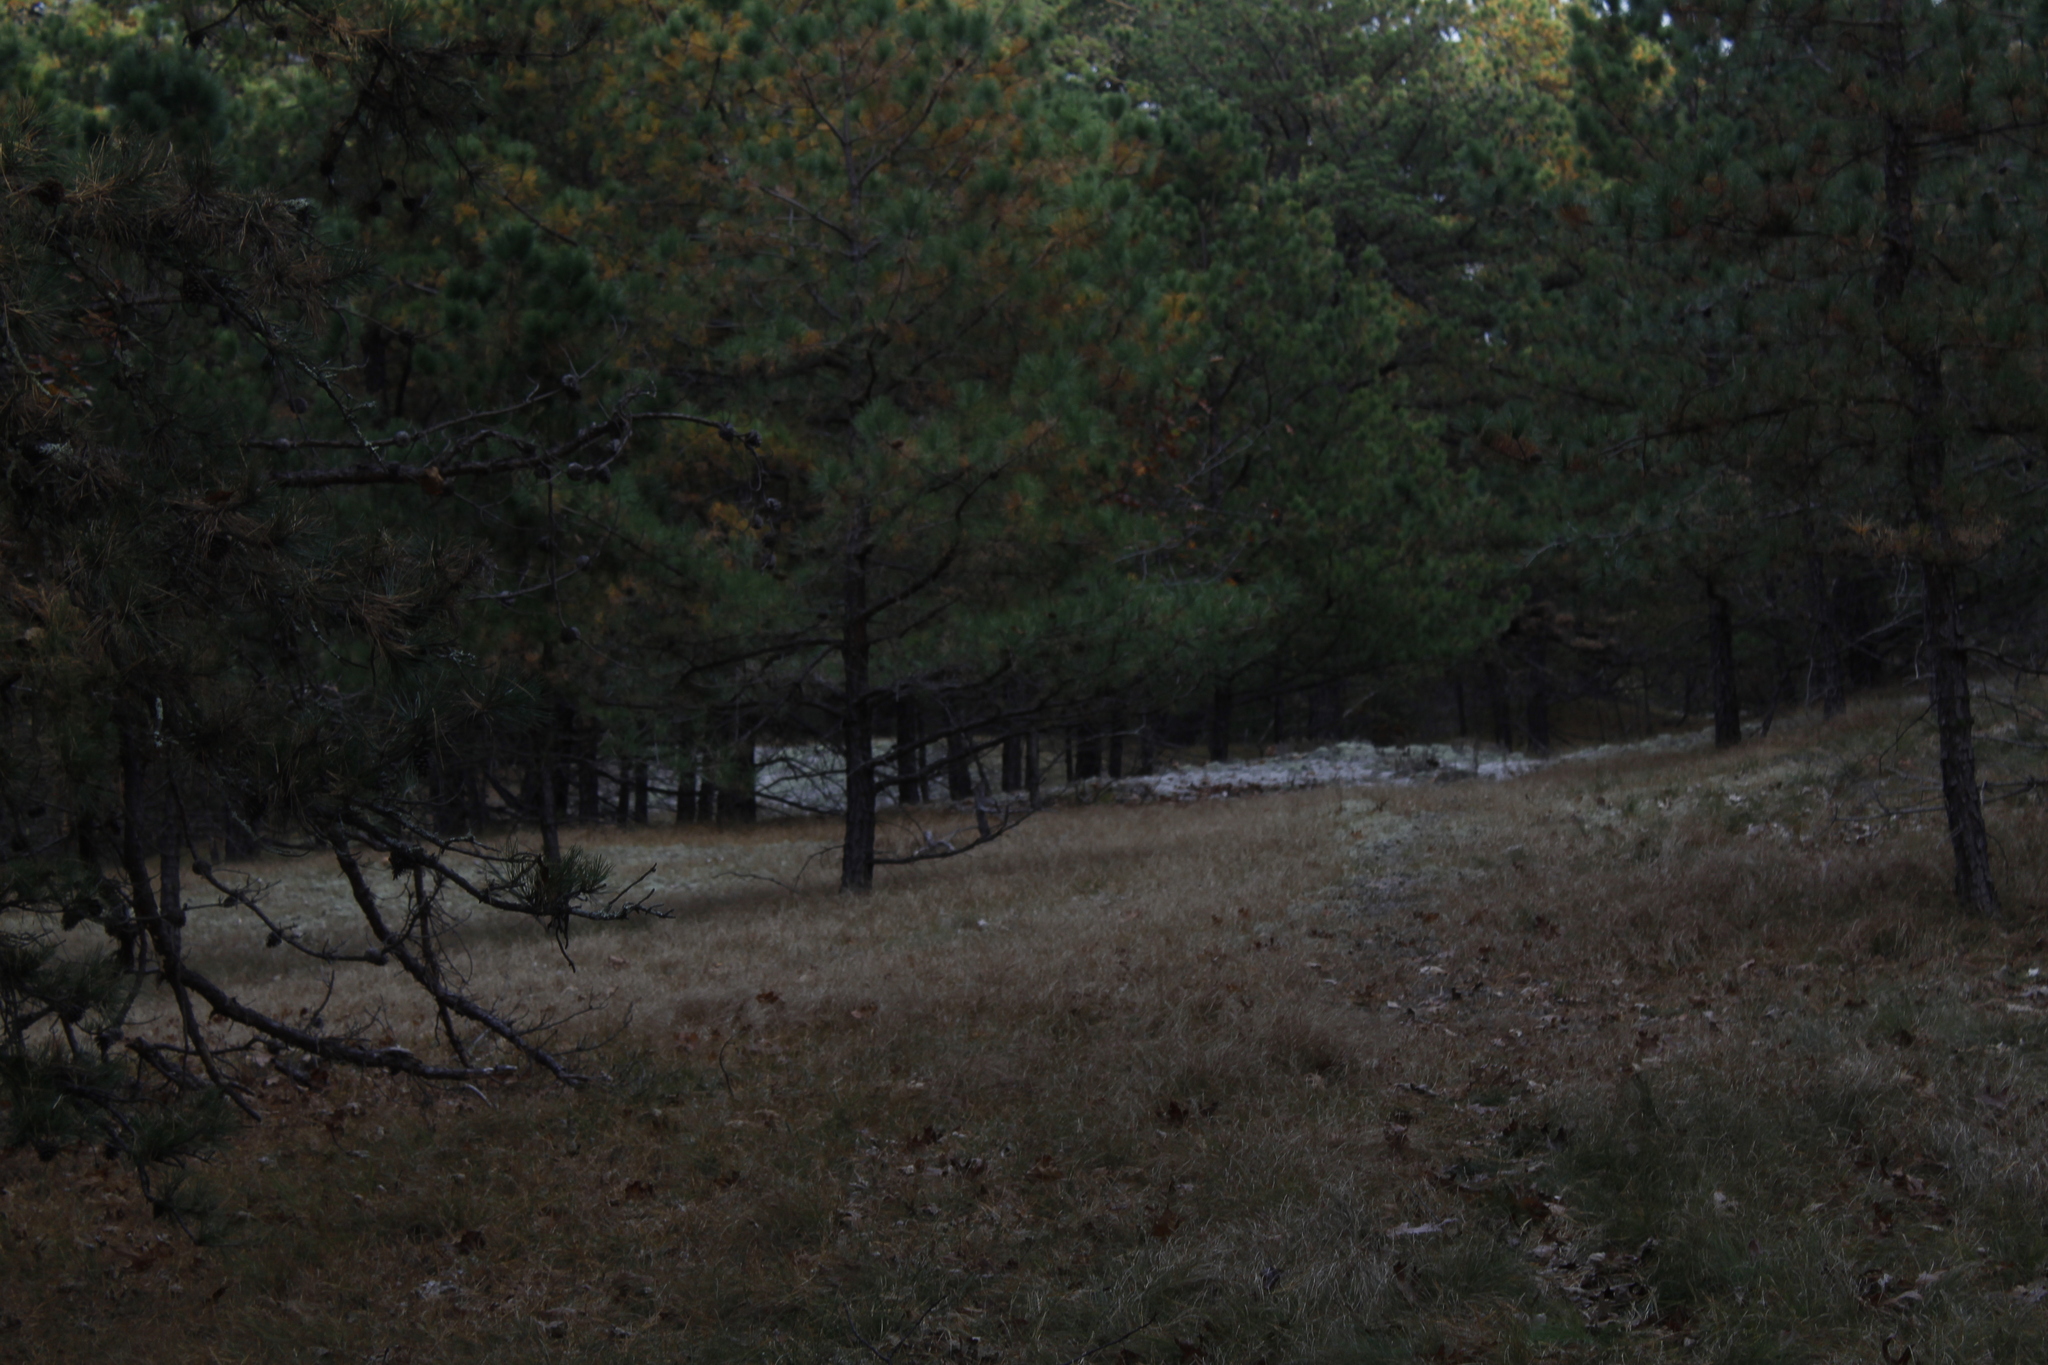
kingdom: Plantae
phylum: Tracheophyta
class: Pinopsida
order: Pinales
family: Pinaceae
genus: Pinus
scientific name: Pinus rigida
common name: Pitch pine
